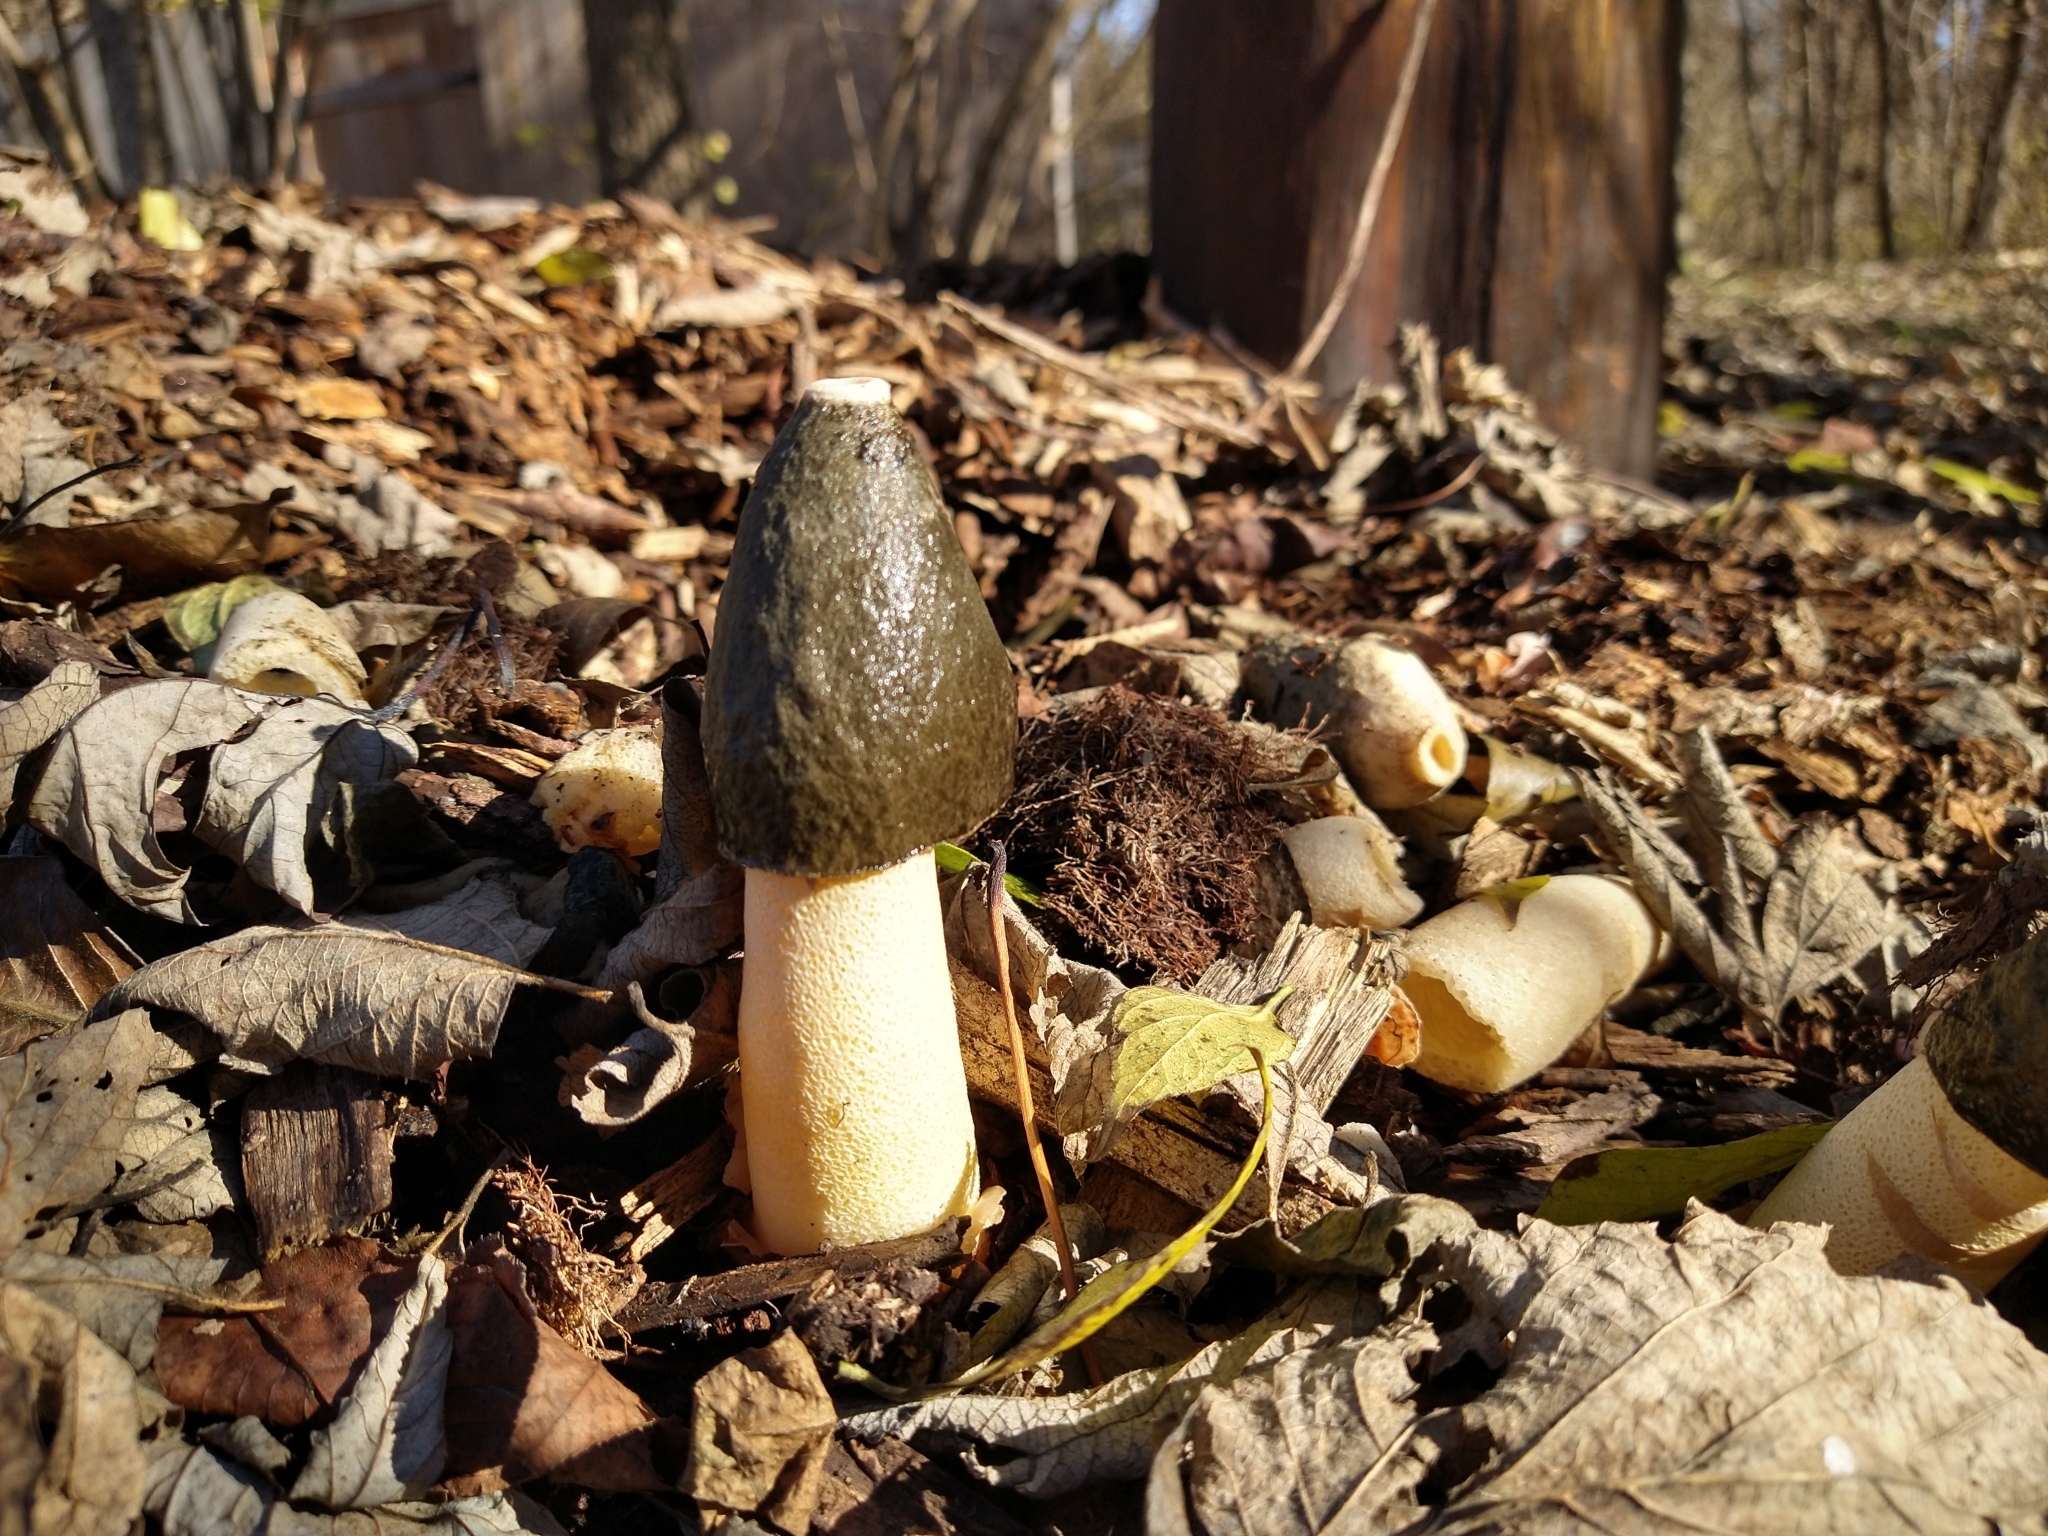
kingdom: Fungi
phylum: Basidiomycota
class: Agaricomycetes
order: Phallales
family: Phallaceae
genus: Phallus
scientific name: Phallus ravenelii
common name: Ravenel's stinkhorn
